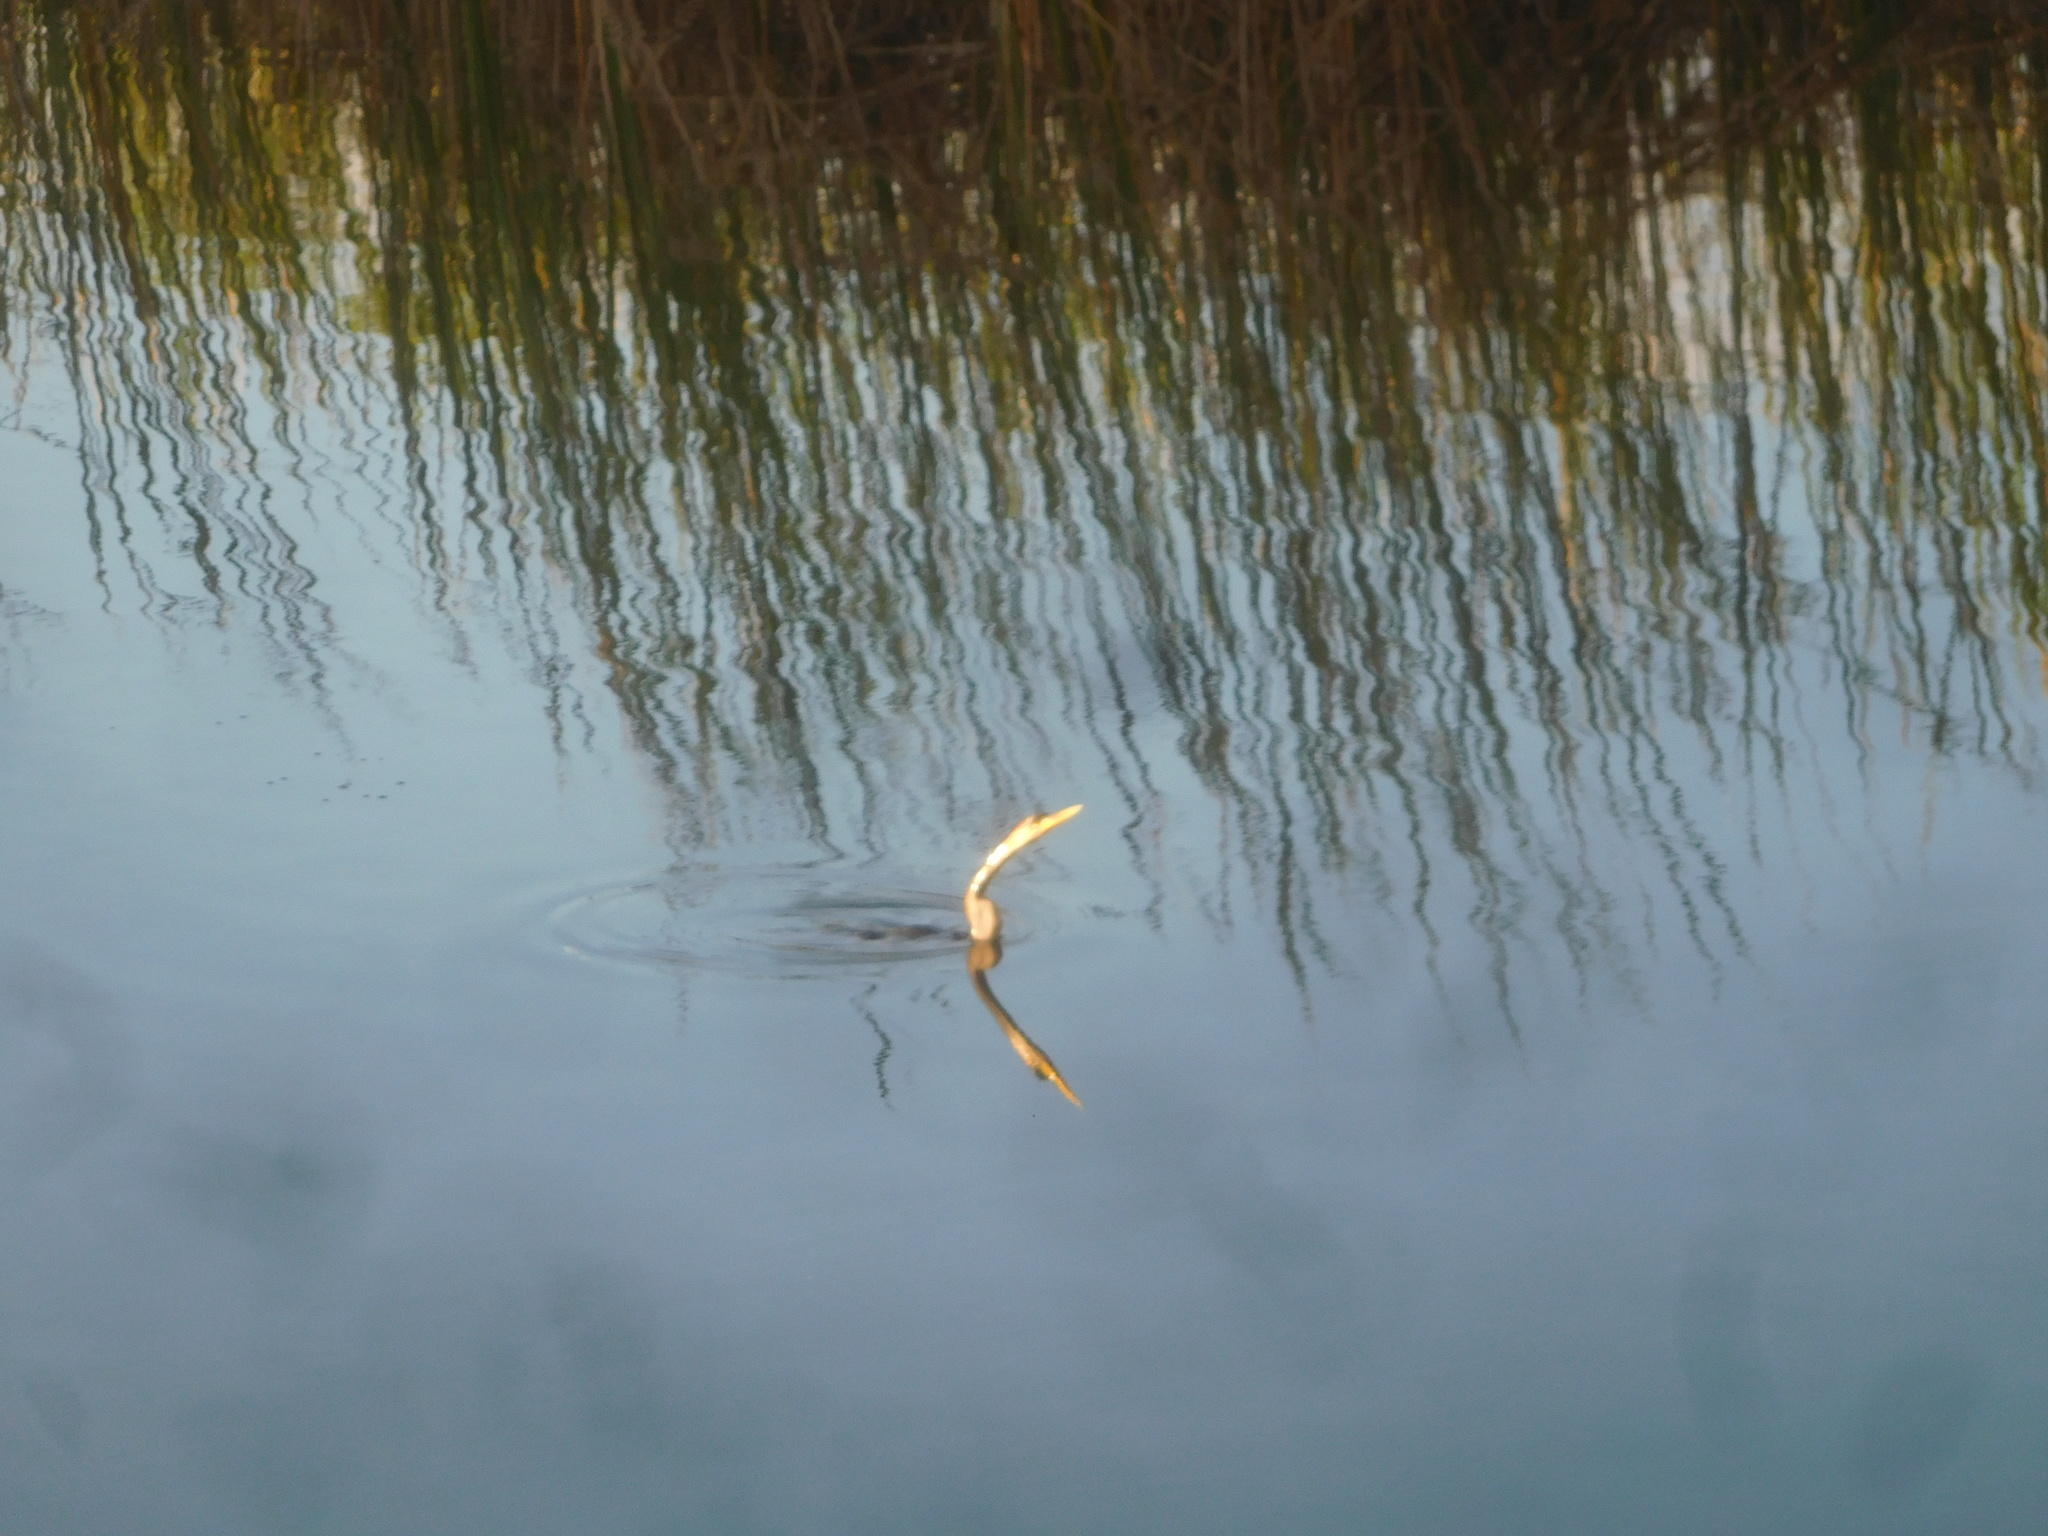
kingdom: Animalia
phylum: Chordata
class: Aves
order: Suliformes
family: Anhingidae
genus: Anhinga
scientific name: Anhinga anhinga
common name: Anhinga
